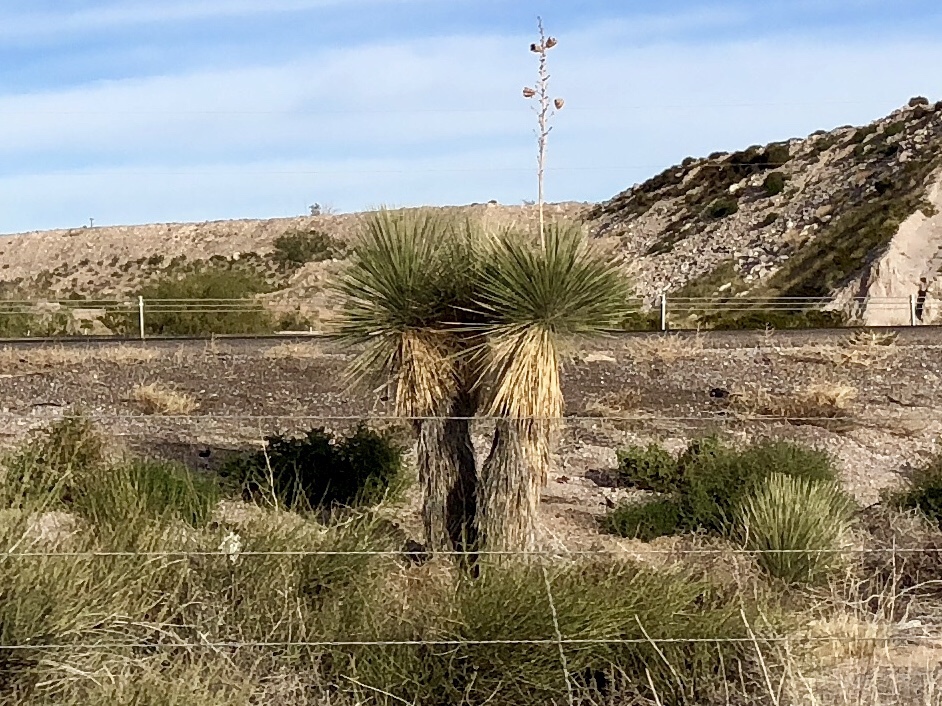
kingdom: Plantae
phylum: Tracheophyta
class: Liliopsida
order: Asparagales
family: Asparagaceae
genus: Yucca
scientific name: Yucca elata
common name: Palmella
